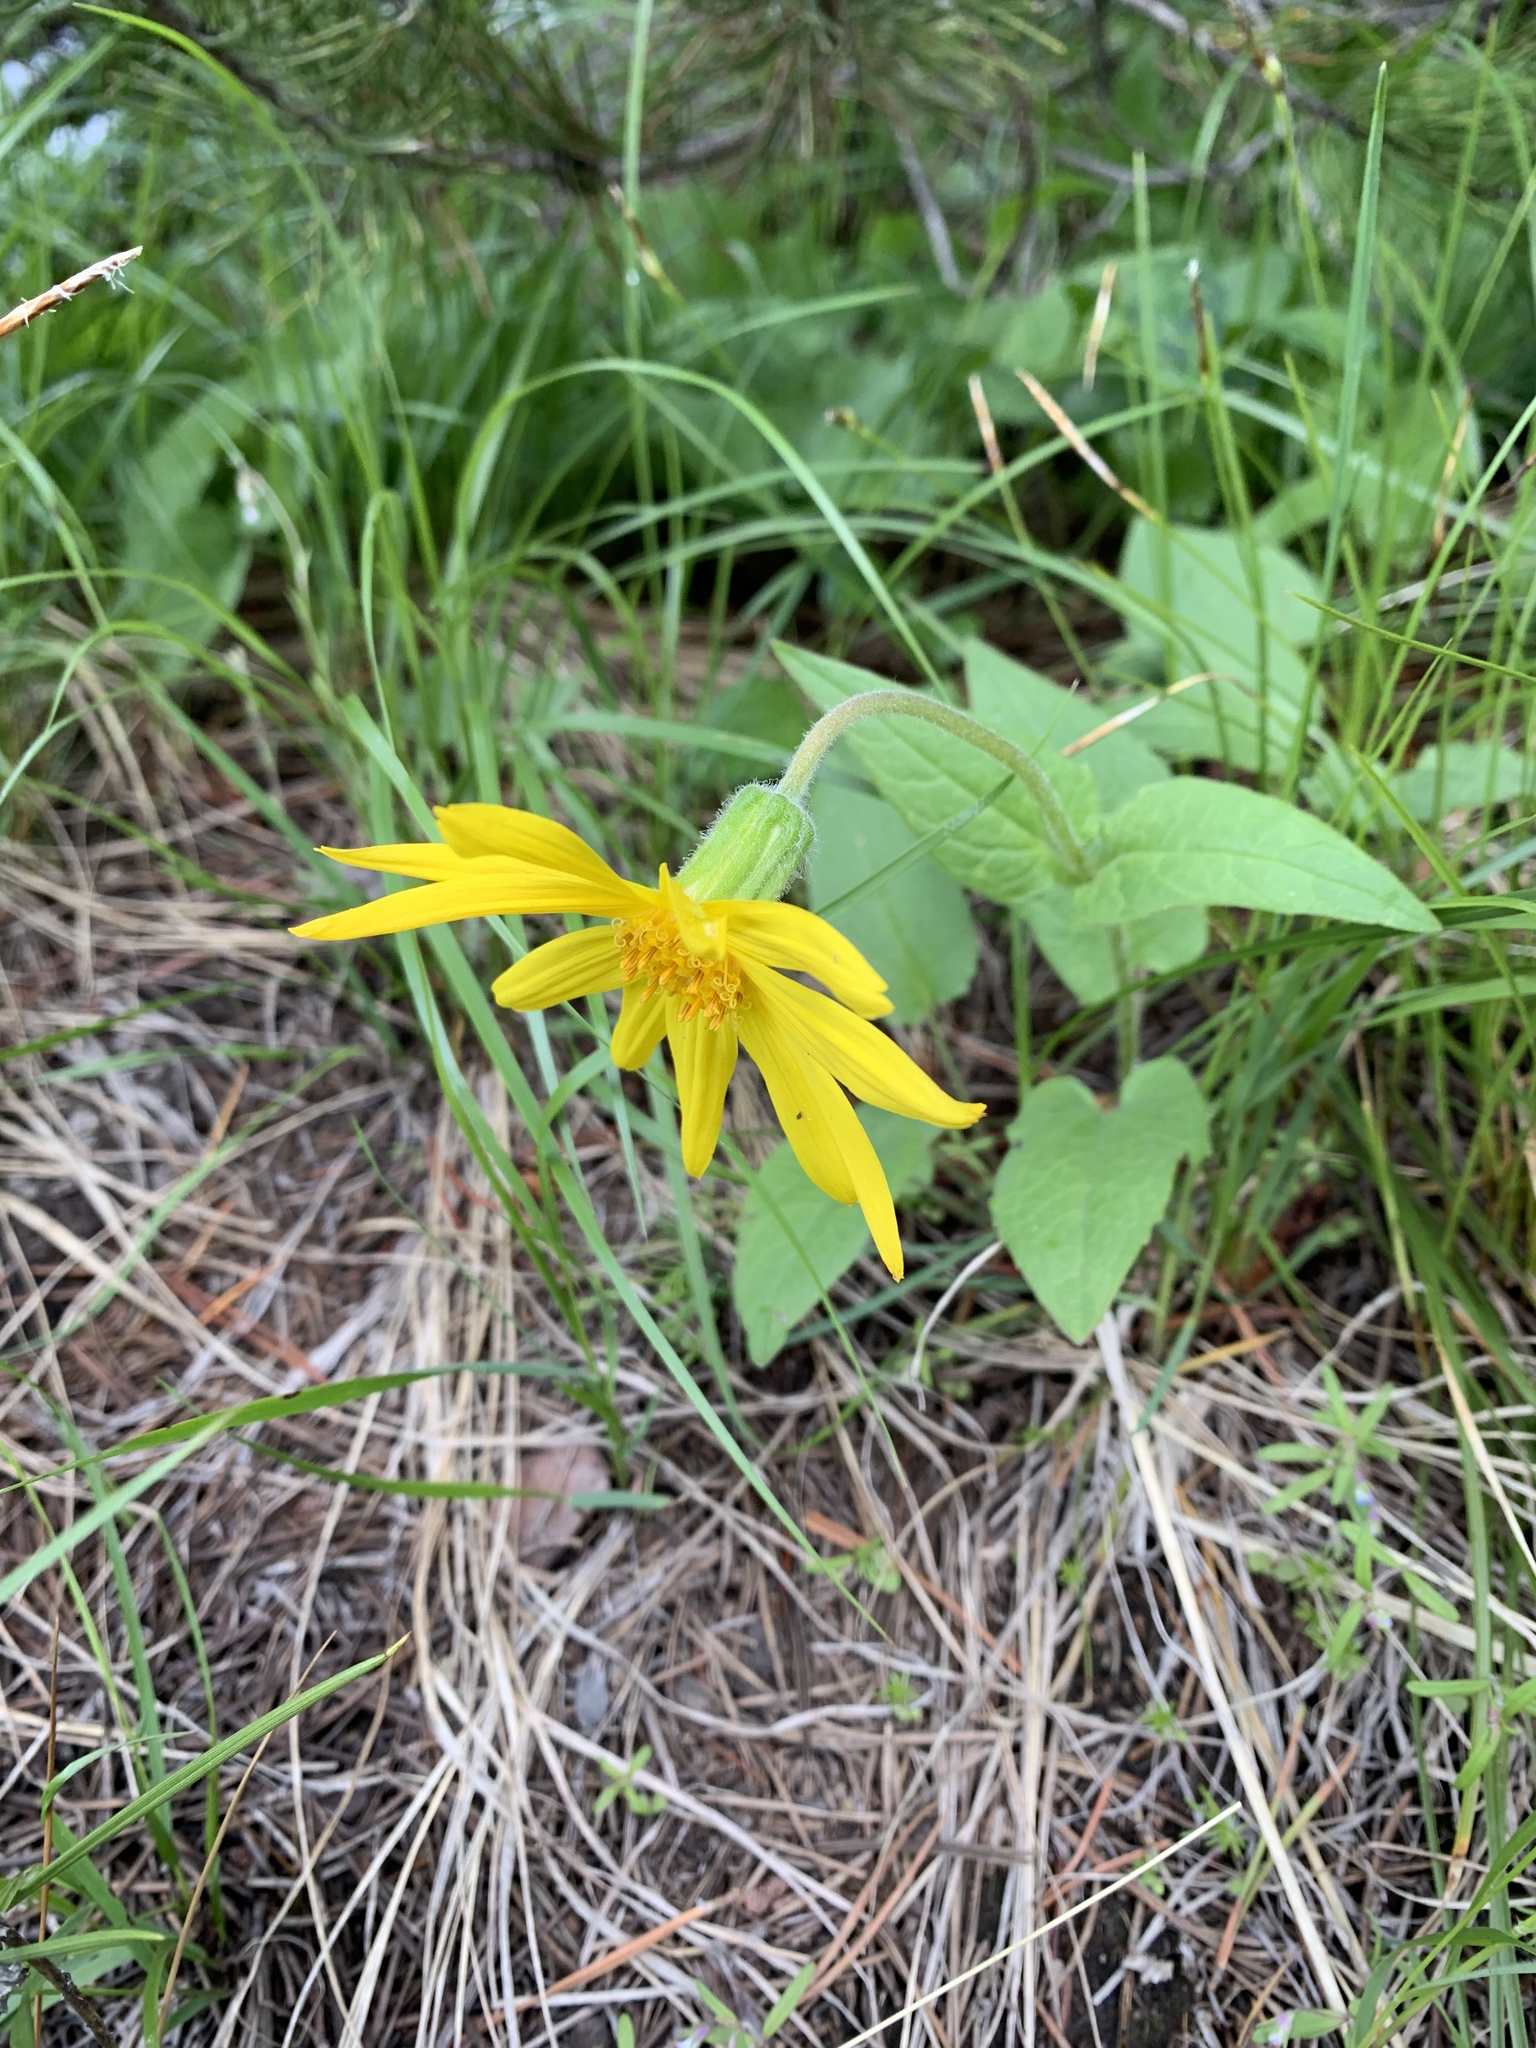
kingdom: Plantae
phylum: Tracheophyta
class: Magnoliopsida
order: Asterales
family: Asteraceae
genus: Arnica
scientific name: Arnica cordifolia
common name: Heart-leaf arnica
